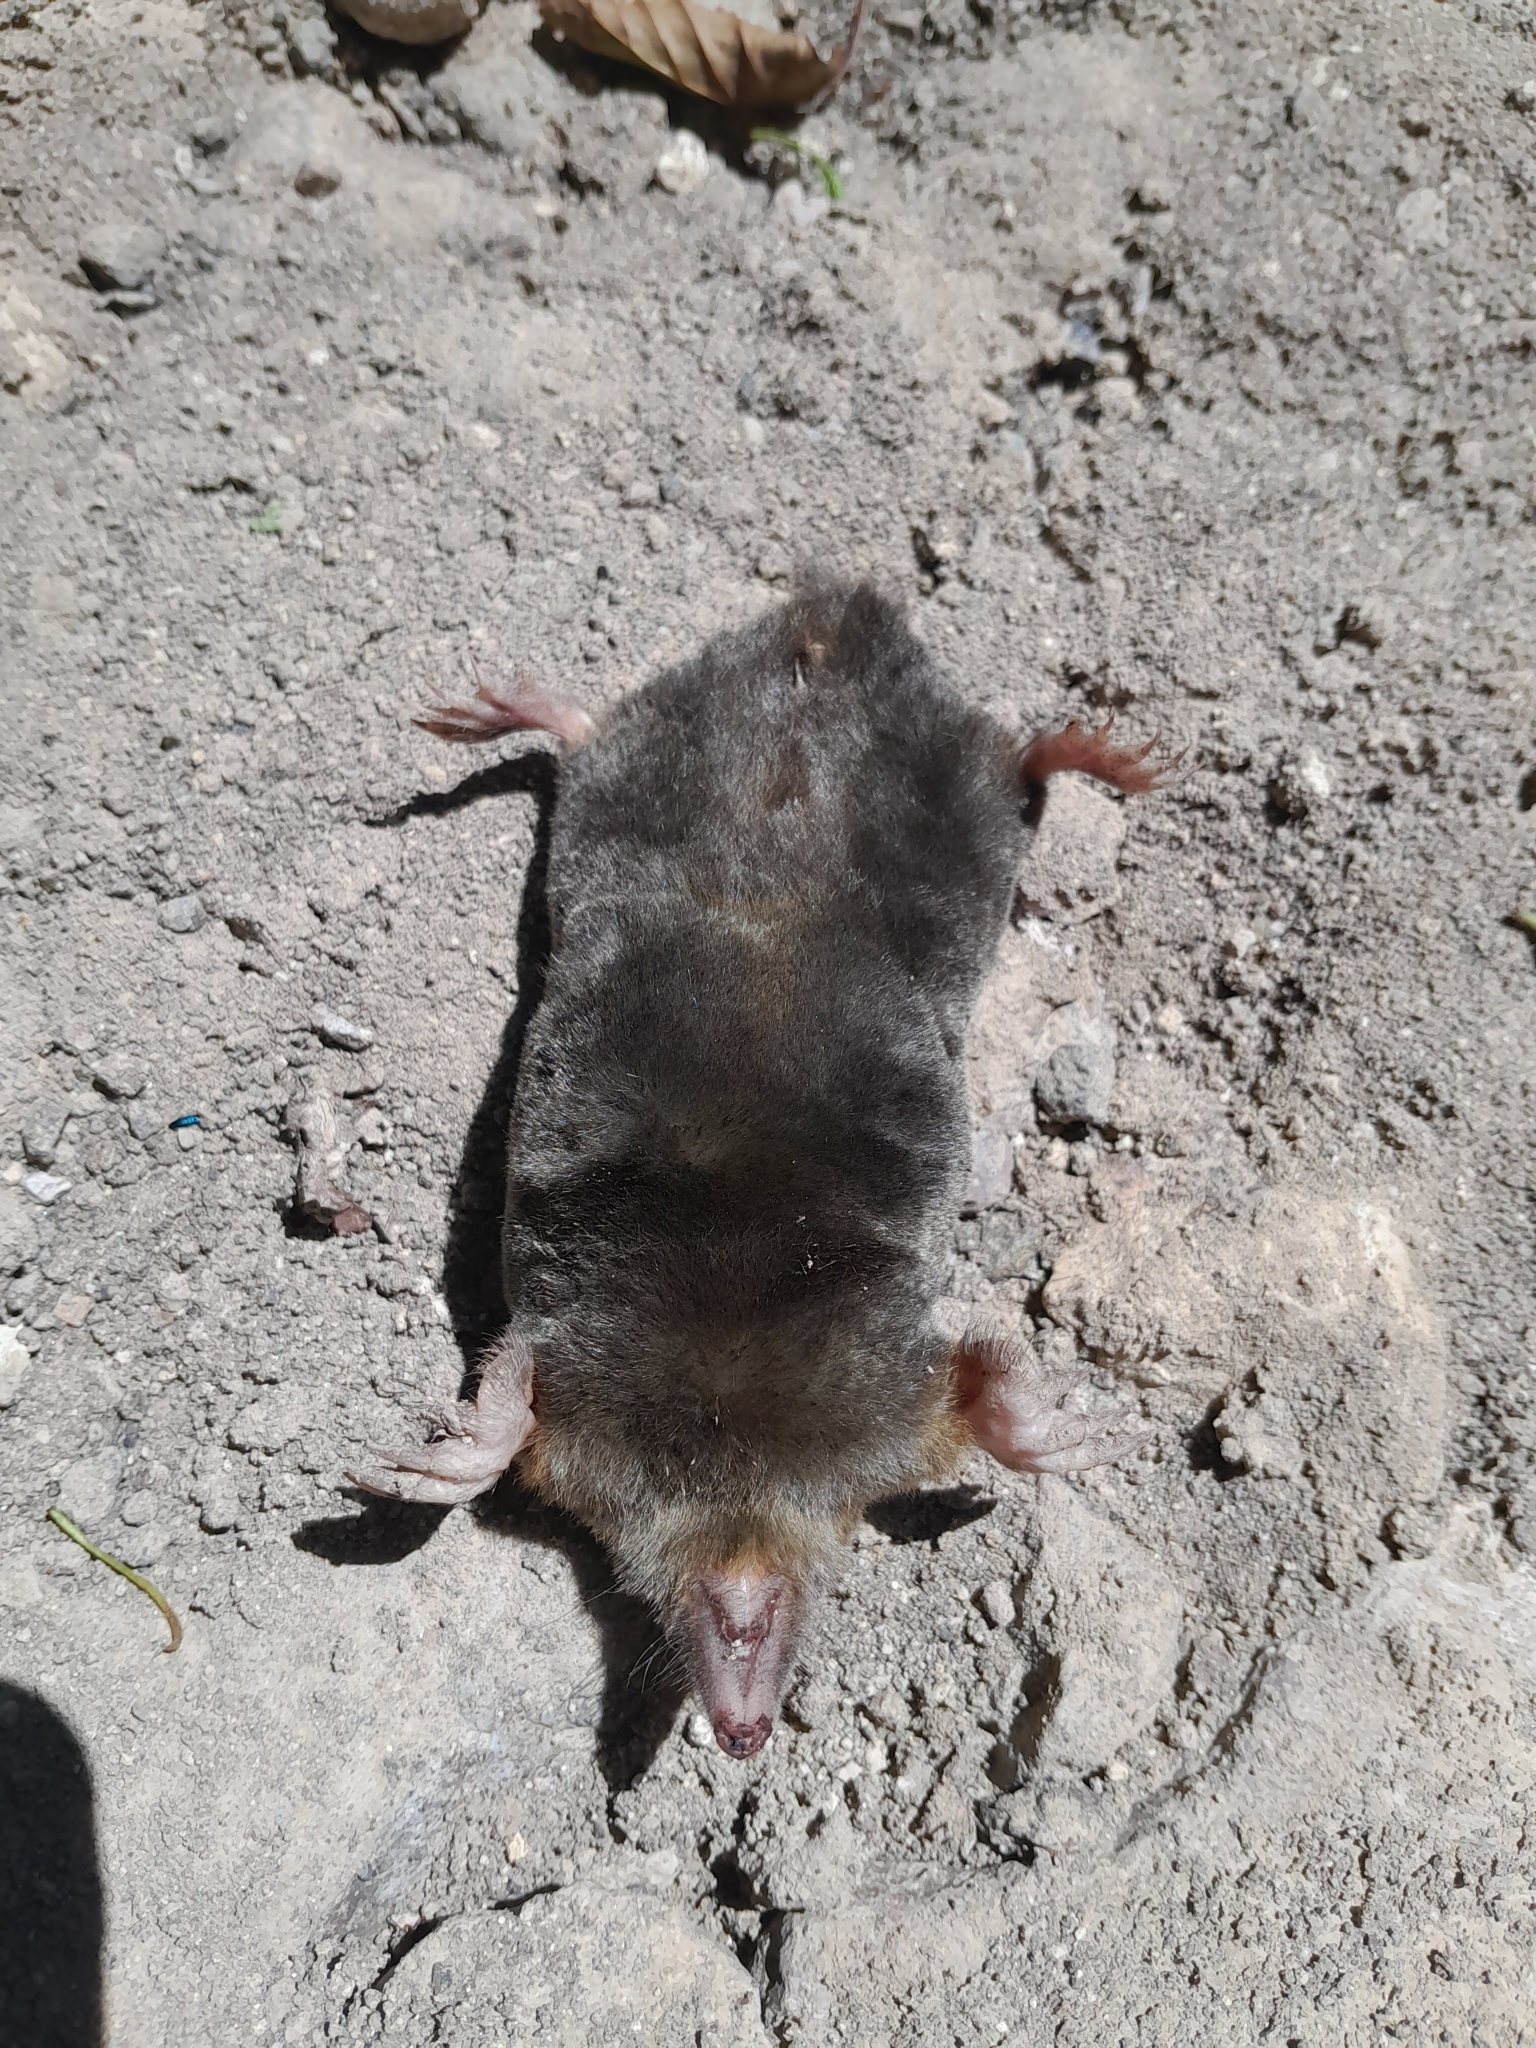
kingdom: Animalia
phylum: Chordata
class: Mammalia
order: Soricomorpha
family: Talpidae
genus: Talpa
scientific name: Talpa europaea
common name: European mole
